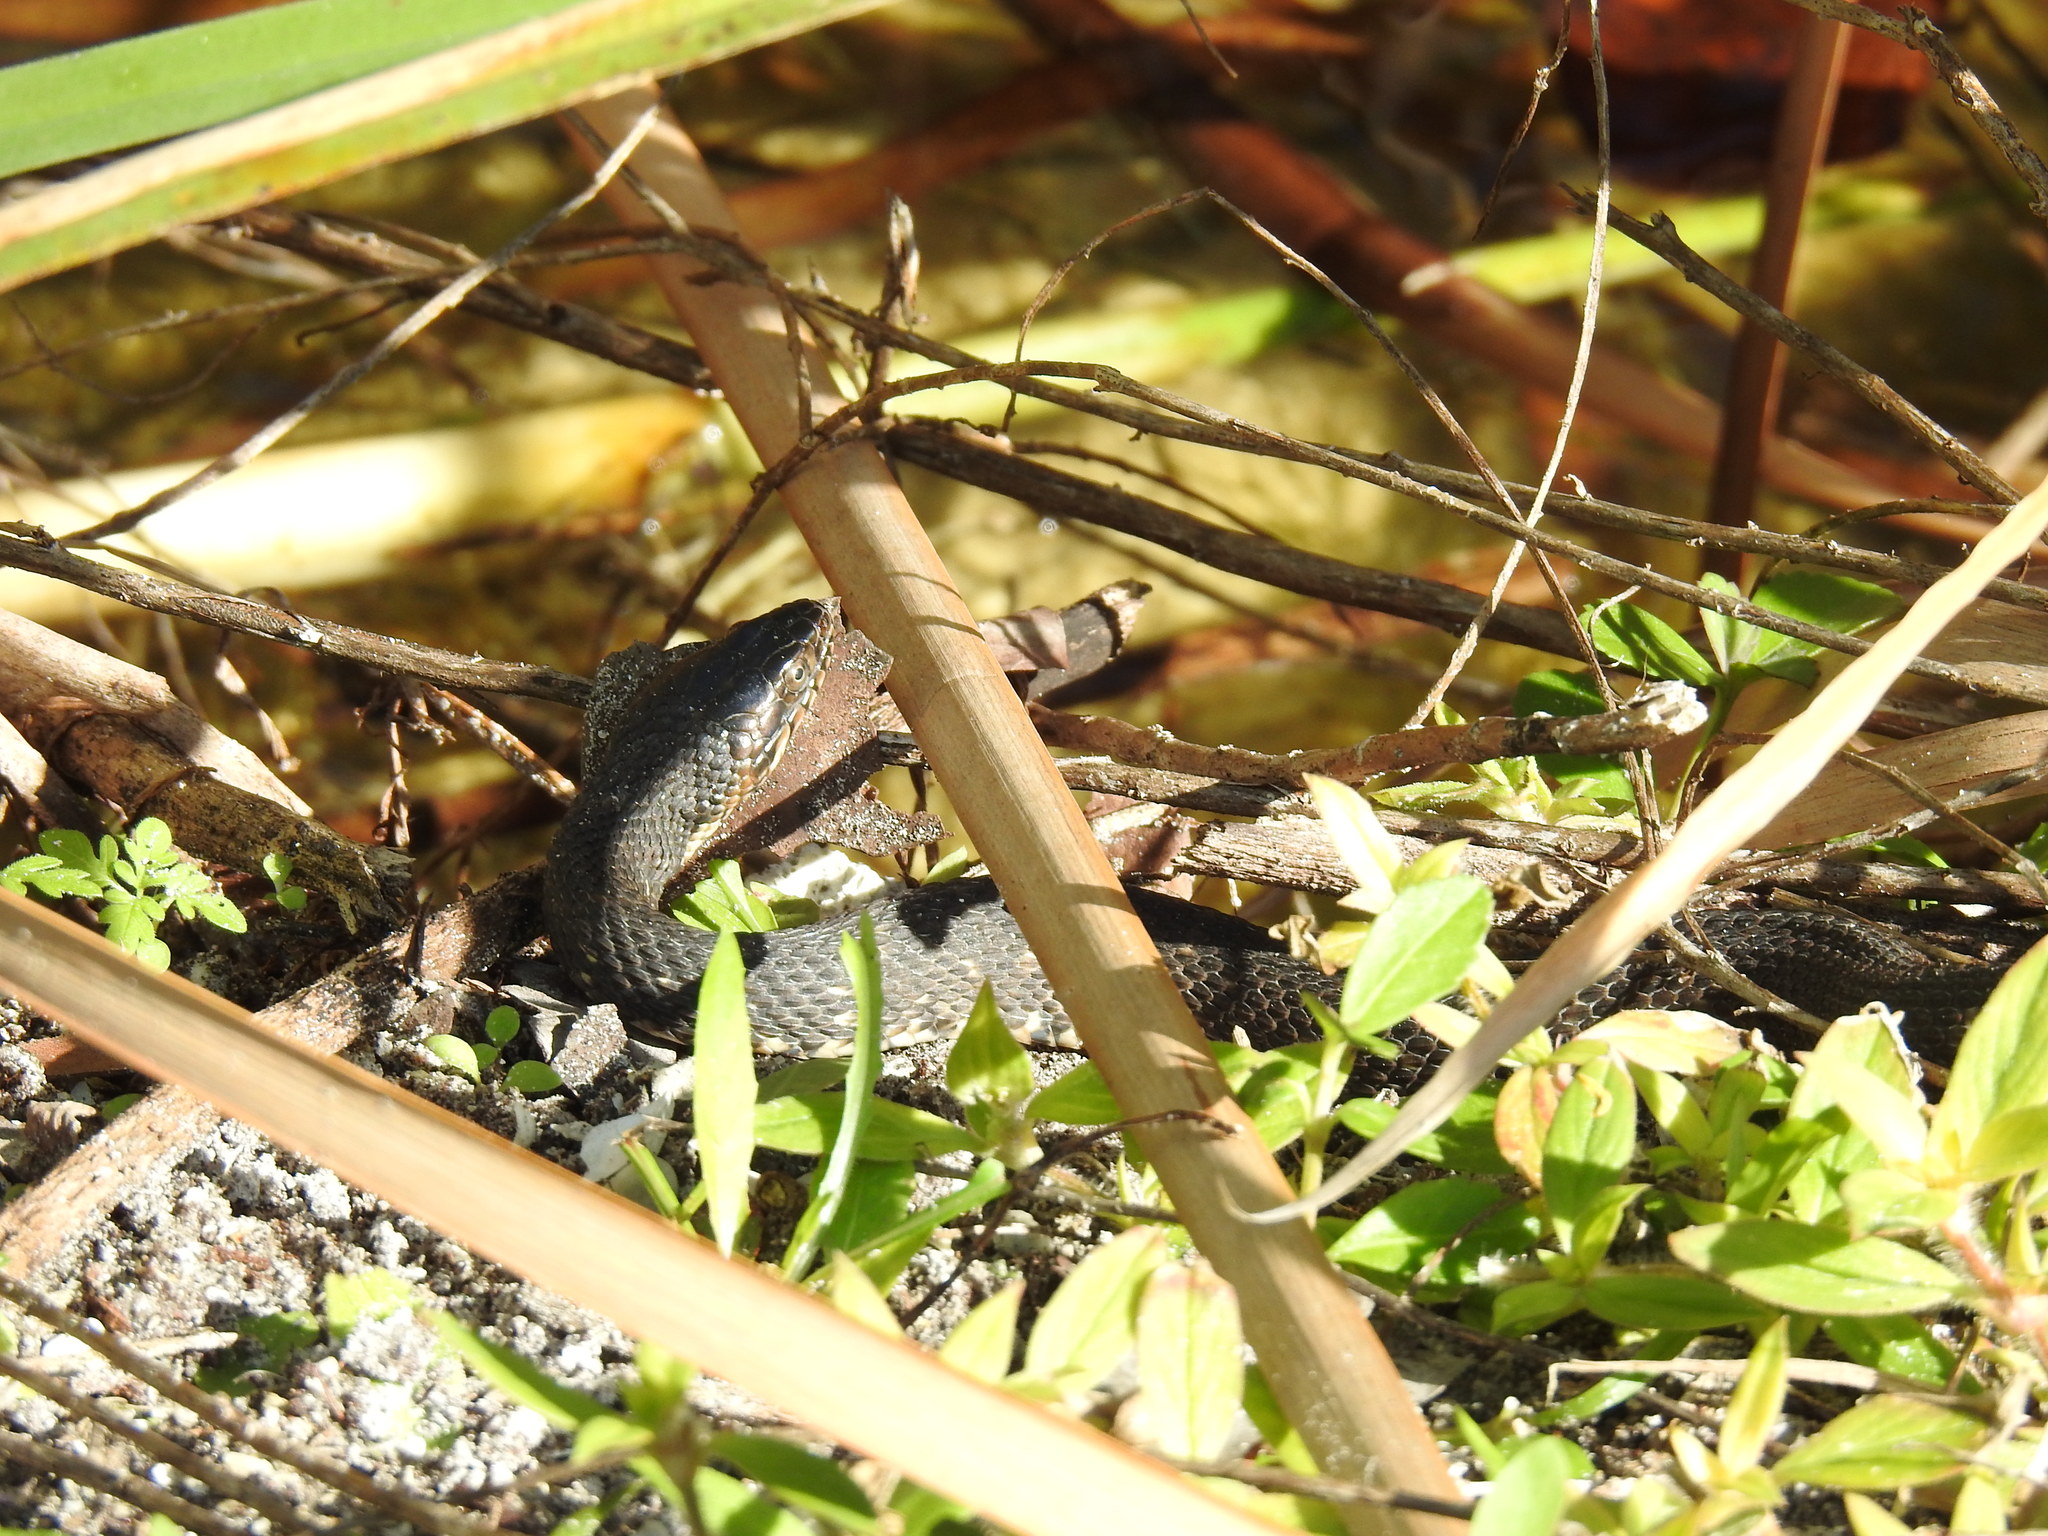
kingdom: Animalia
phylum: Chordata
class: Squamata
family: Colubridae
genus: Nerodia
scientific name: Nerodia fasciata
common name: Southern water snake
